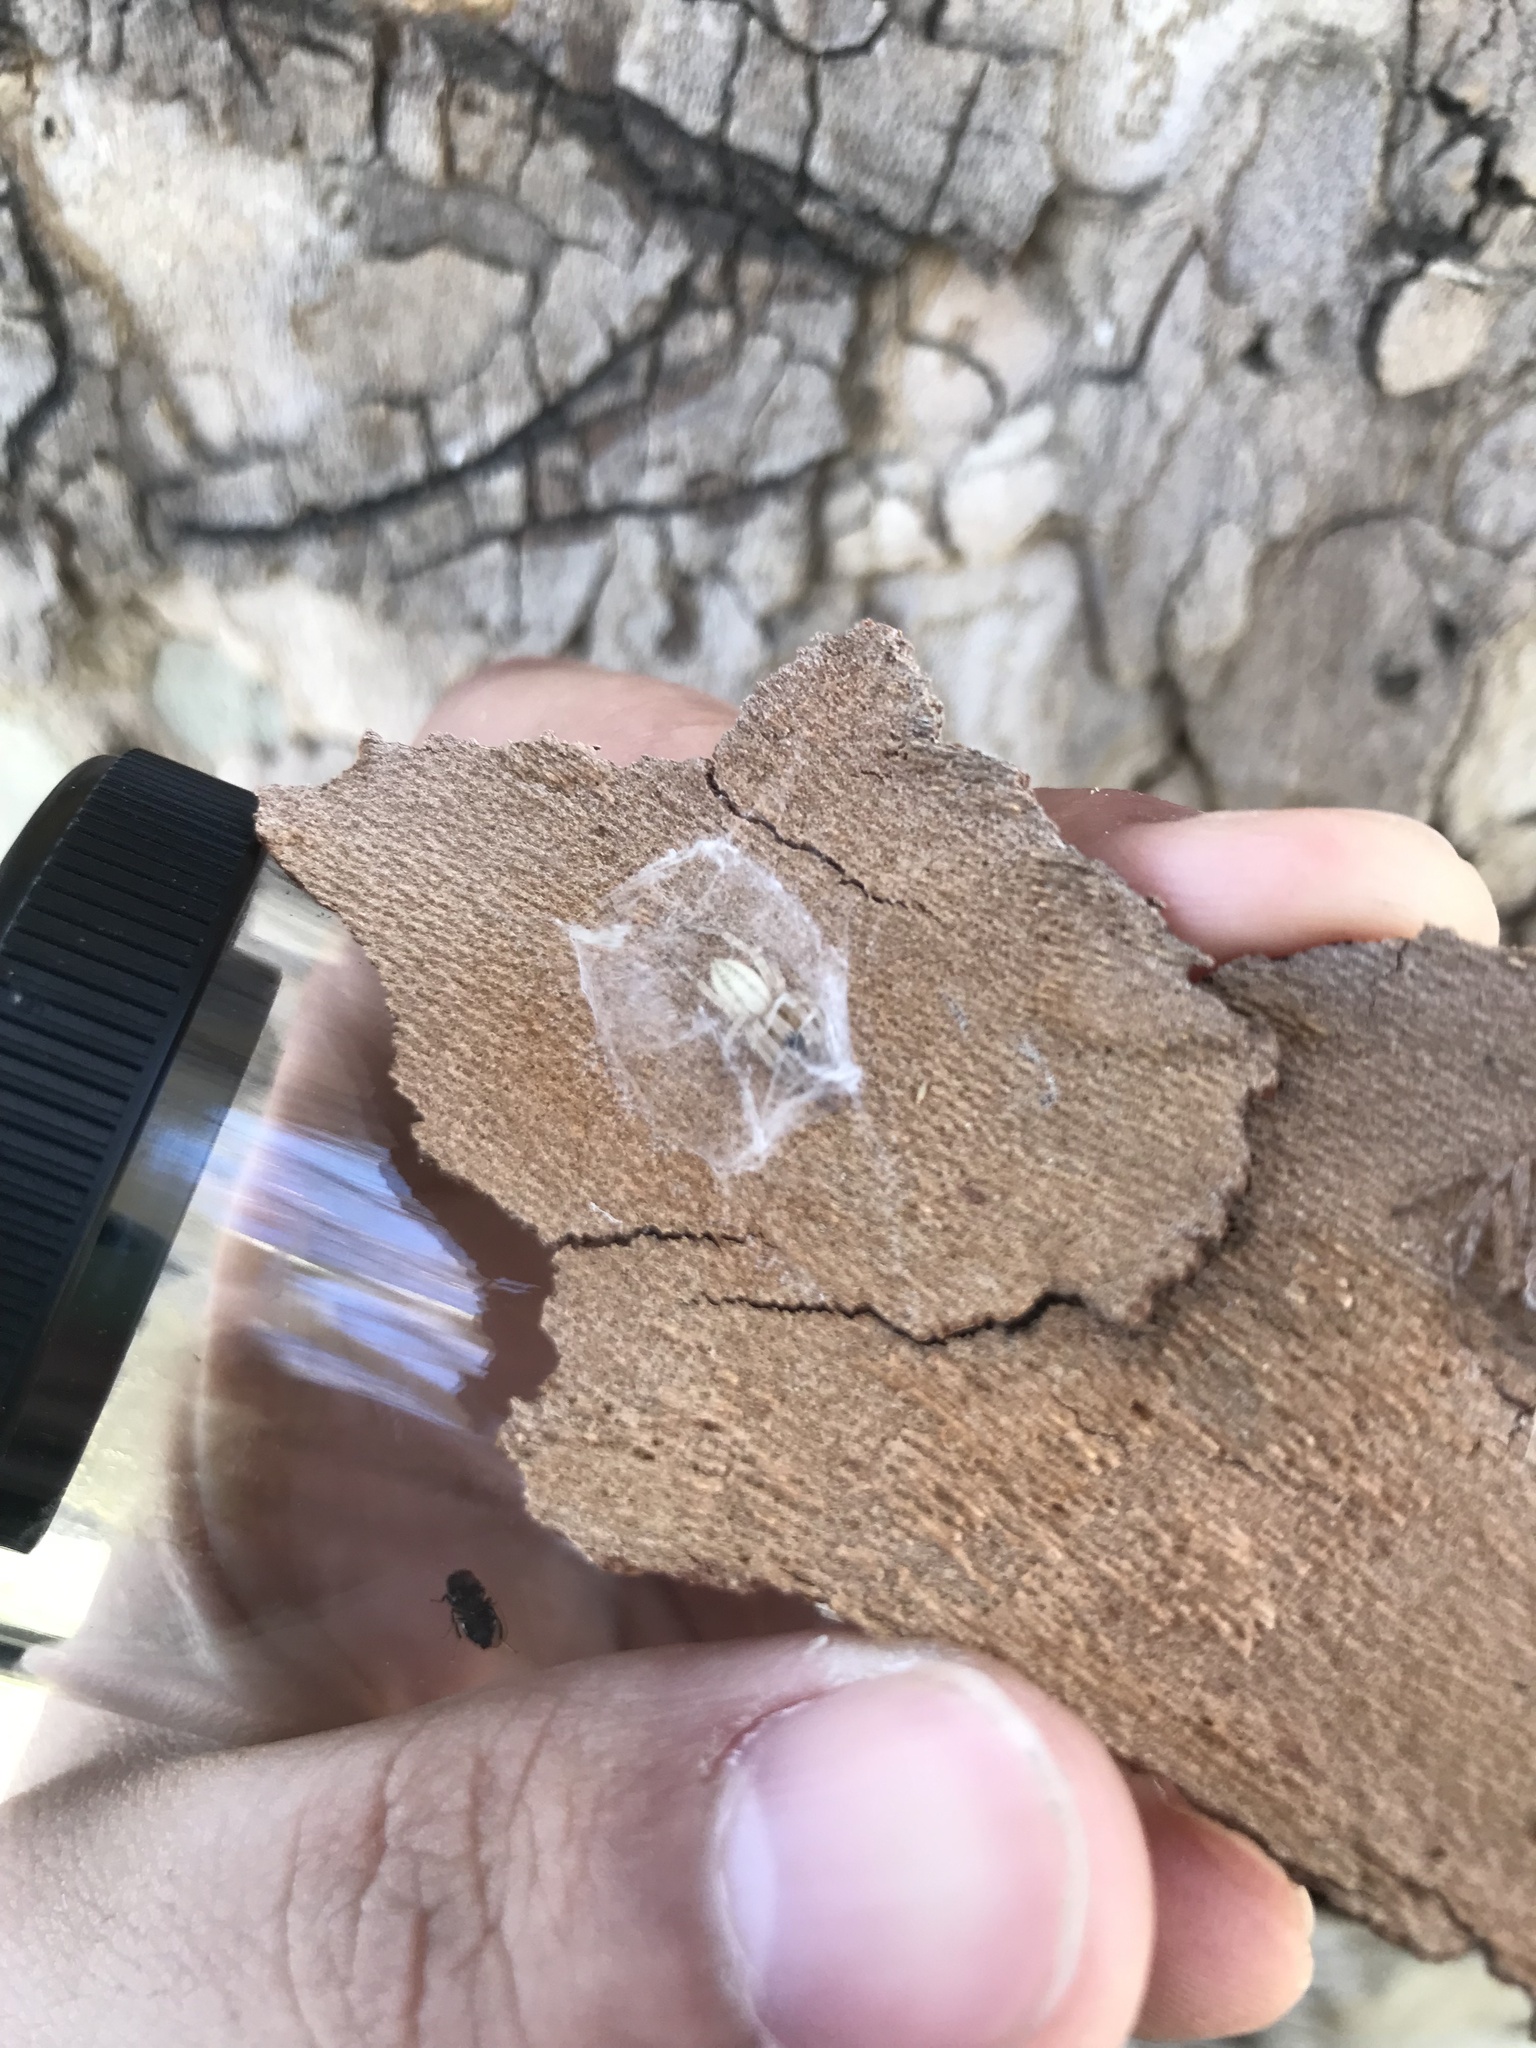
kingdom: Animalia
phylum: Arthropoda
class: Arachnida
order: Araneae
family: Anyphaenidae
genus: Hibana
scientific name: Hibana incursa
